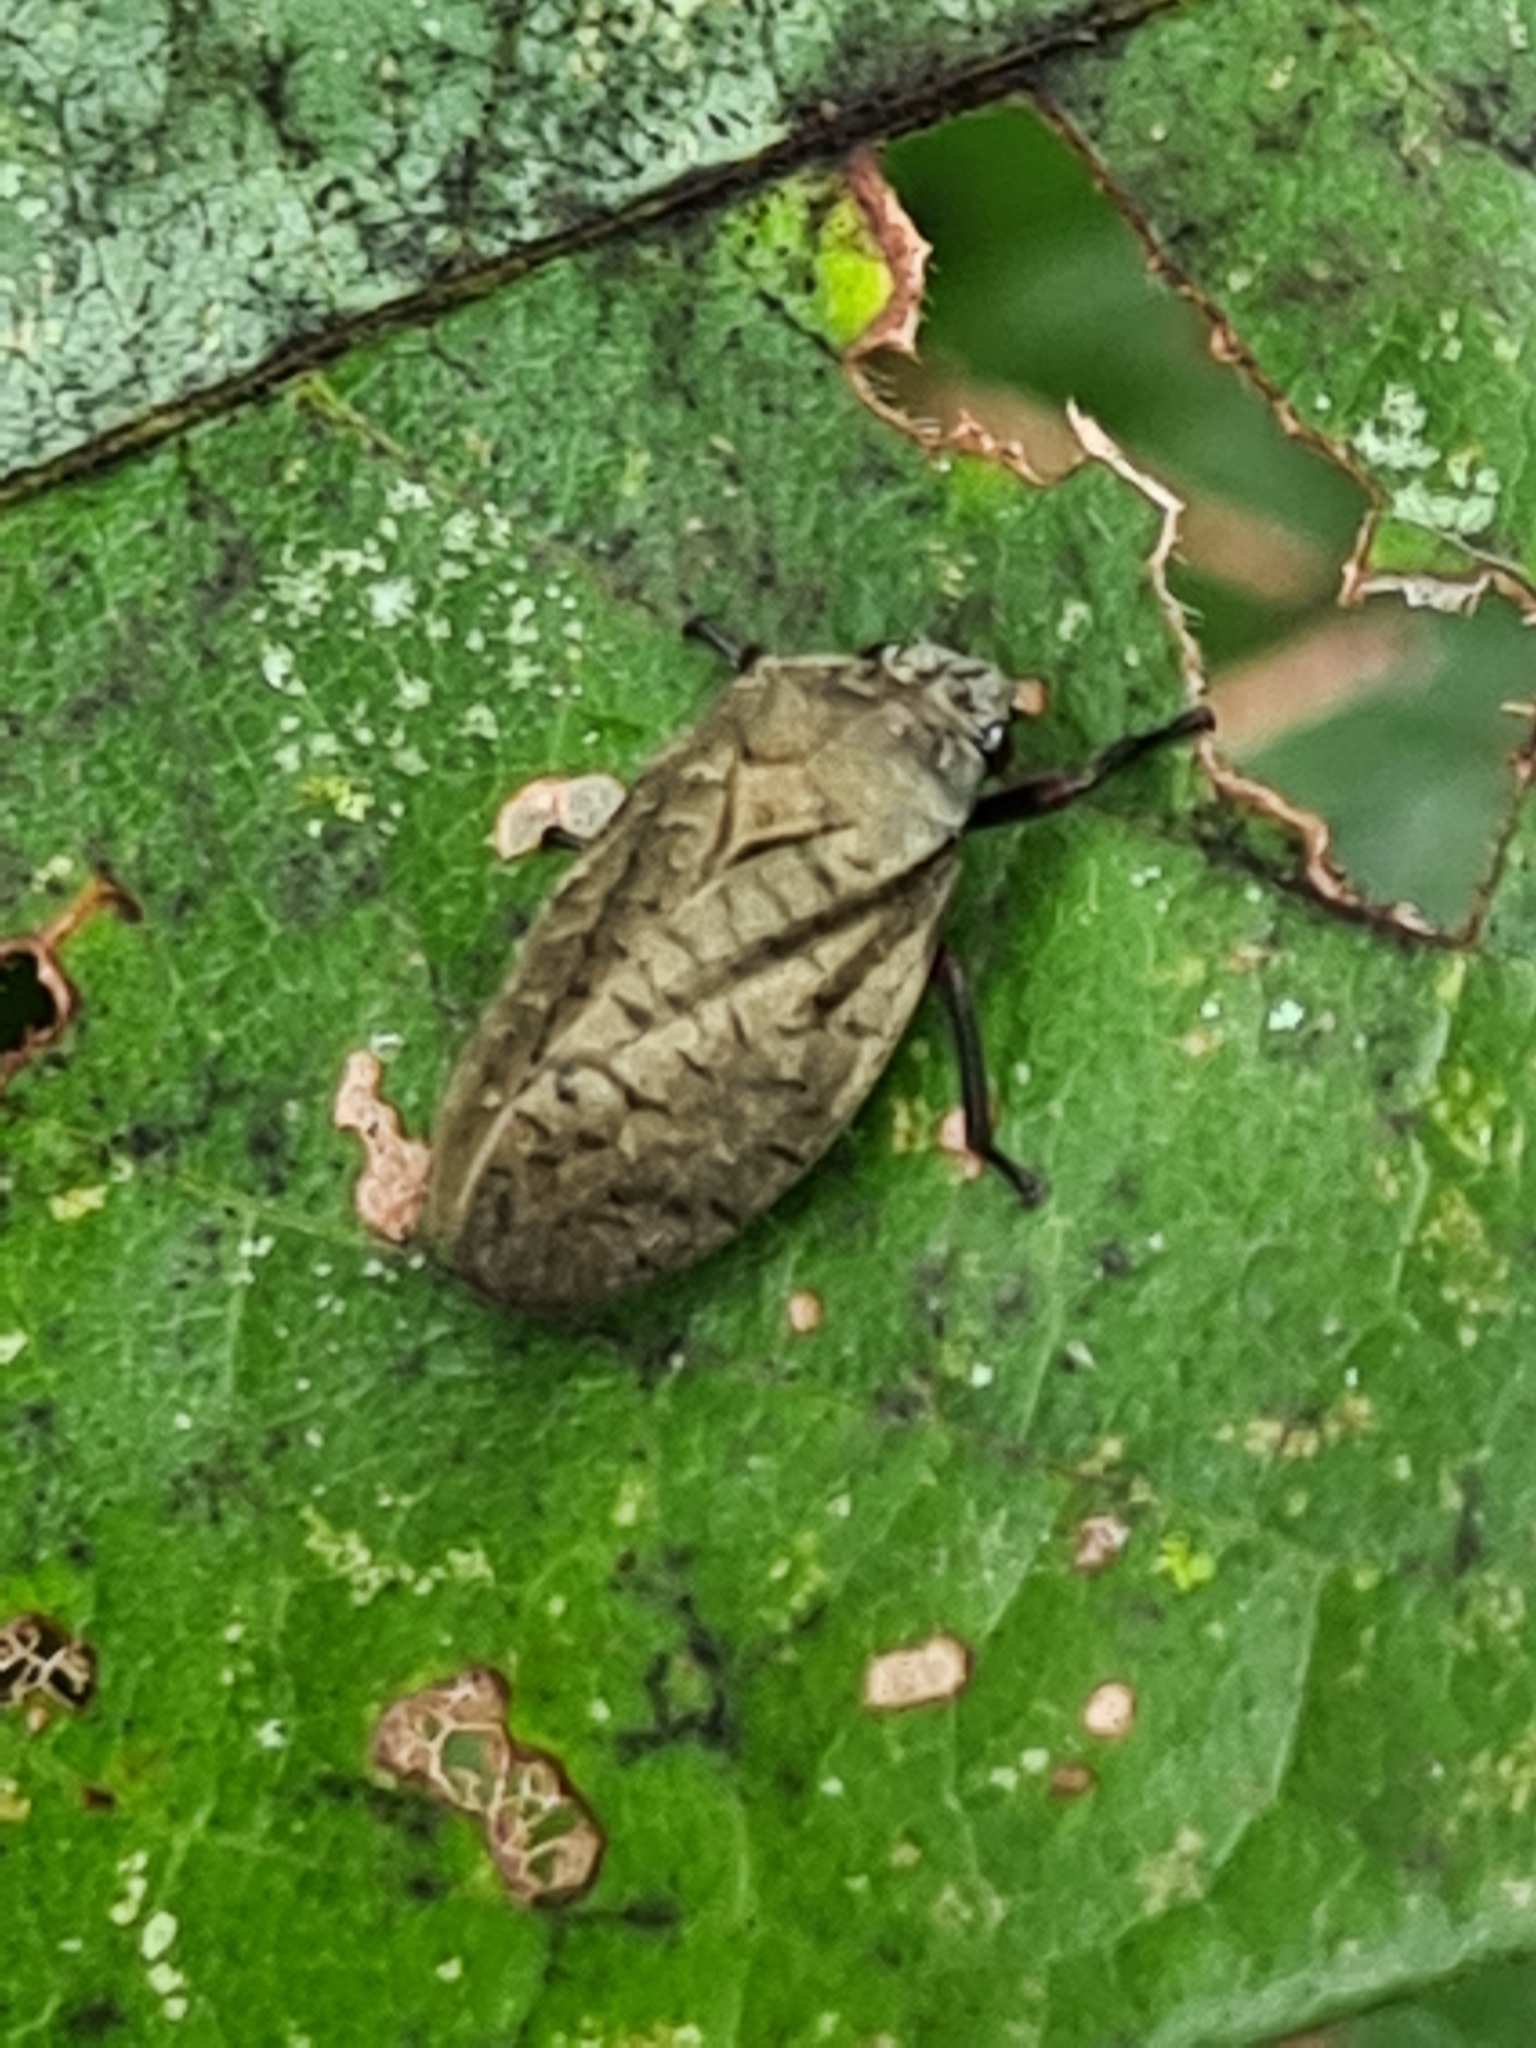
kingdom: Animalia
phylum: Arthropoda
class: Insecta
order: Hemiptera
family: Cercopidae
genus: Zulia
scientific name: Zulia pubescens
